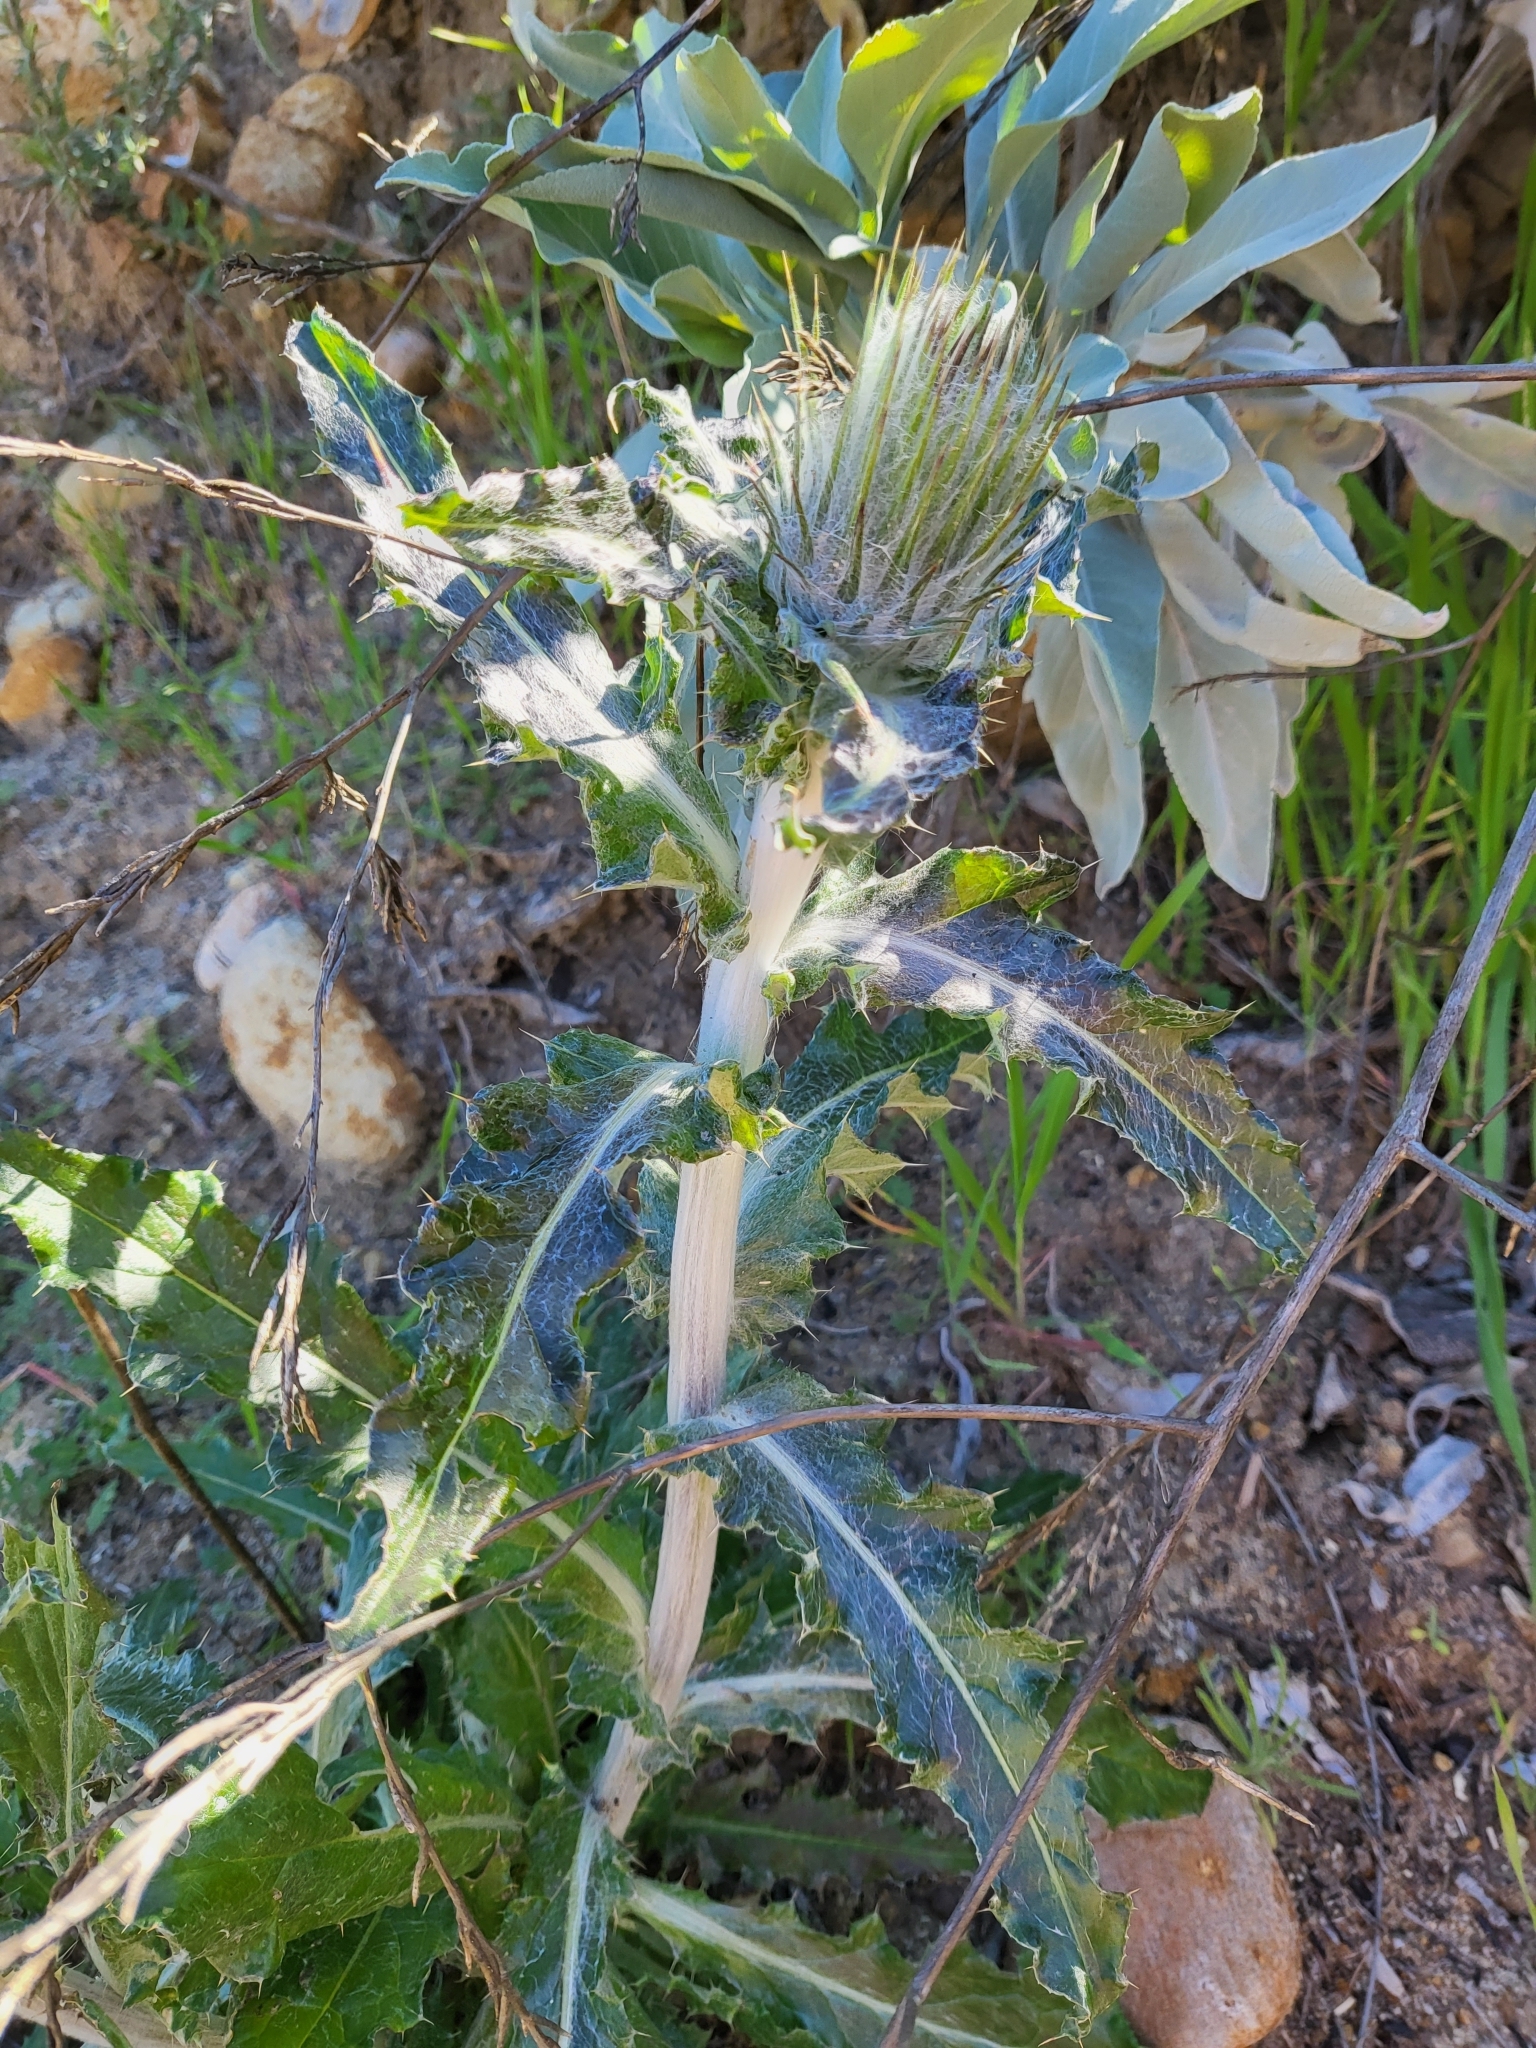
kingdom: Plantae
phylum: Tracheophyta
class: Magnoliopsida
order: Asterales
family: Asteraceae
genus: Cirsium
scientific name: Cirsium occidentale
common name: Western thistle
